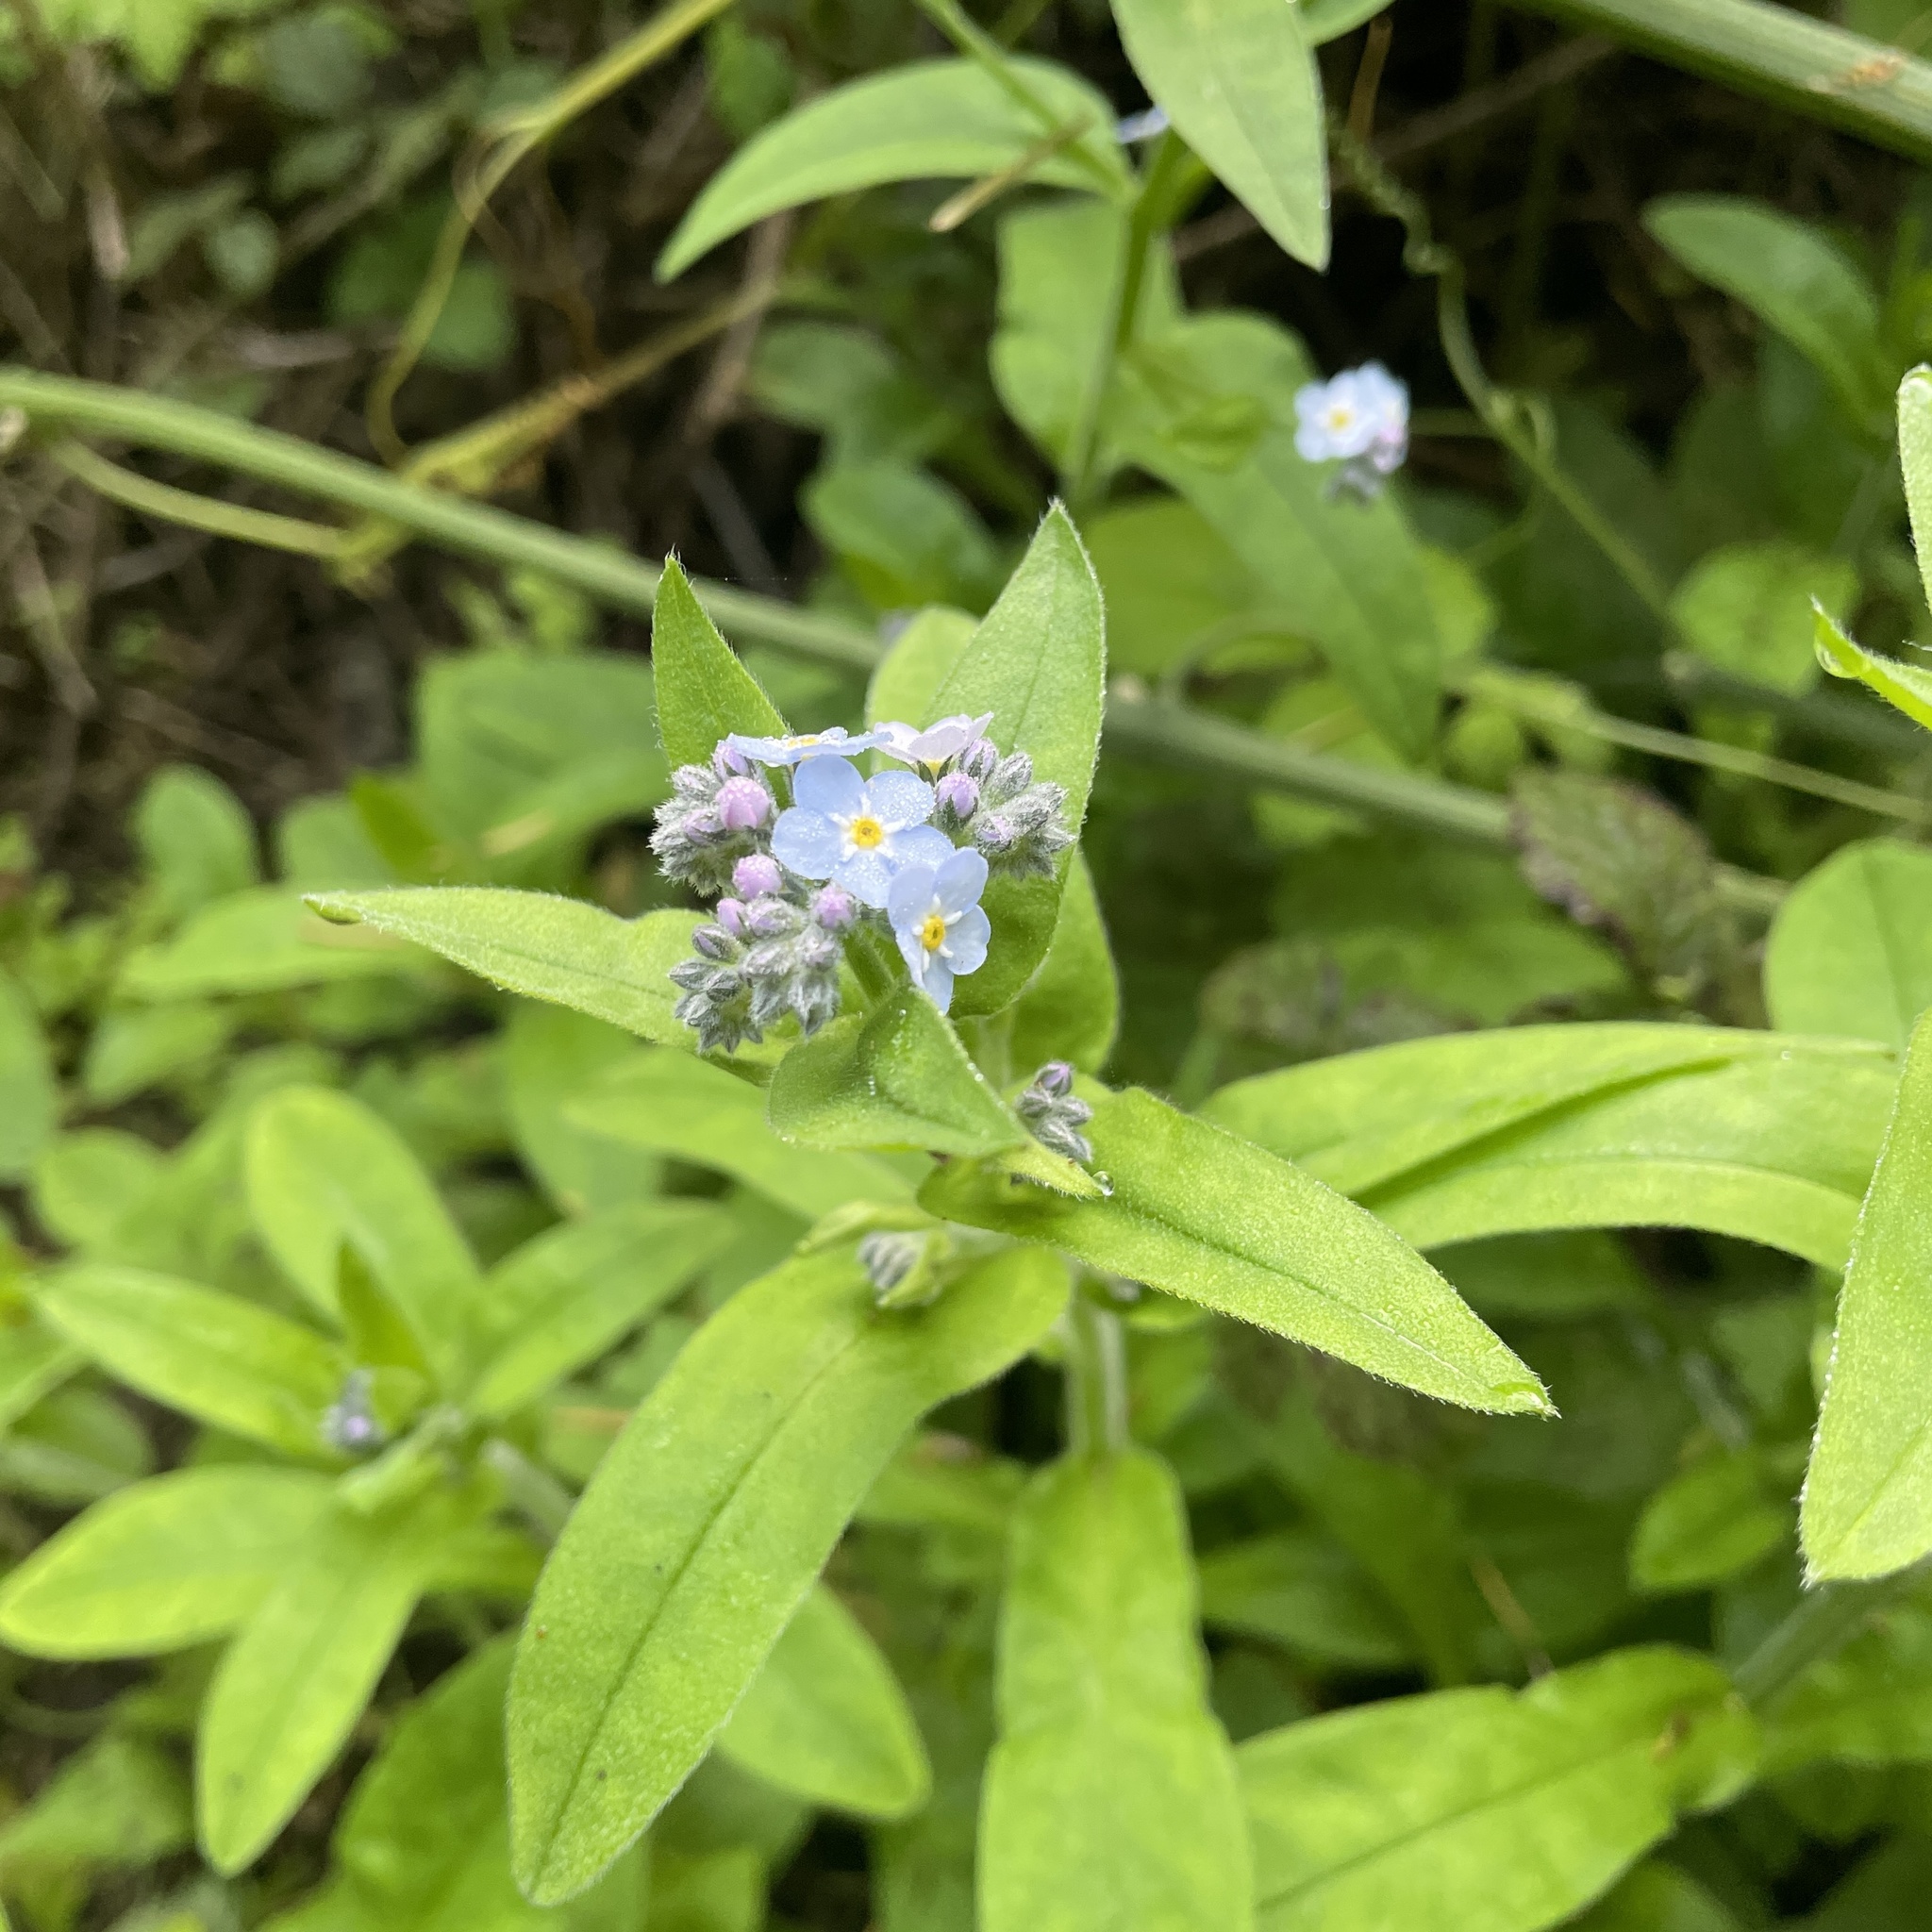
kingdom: Plantae
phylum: Tracheophyta
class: Magnoliopsida
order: Boraginales
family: Boraginaceae
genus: Myosotis
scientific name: Myosotis latifolia
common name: Broadleaf forget-me-not
